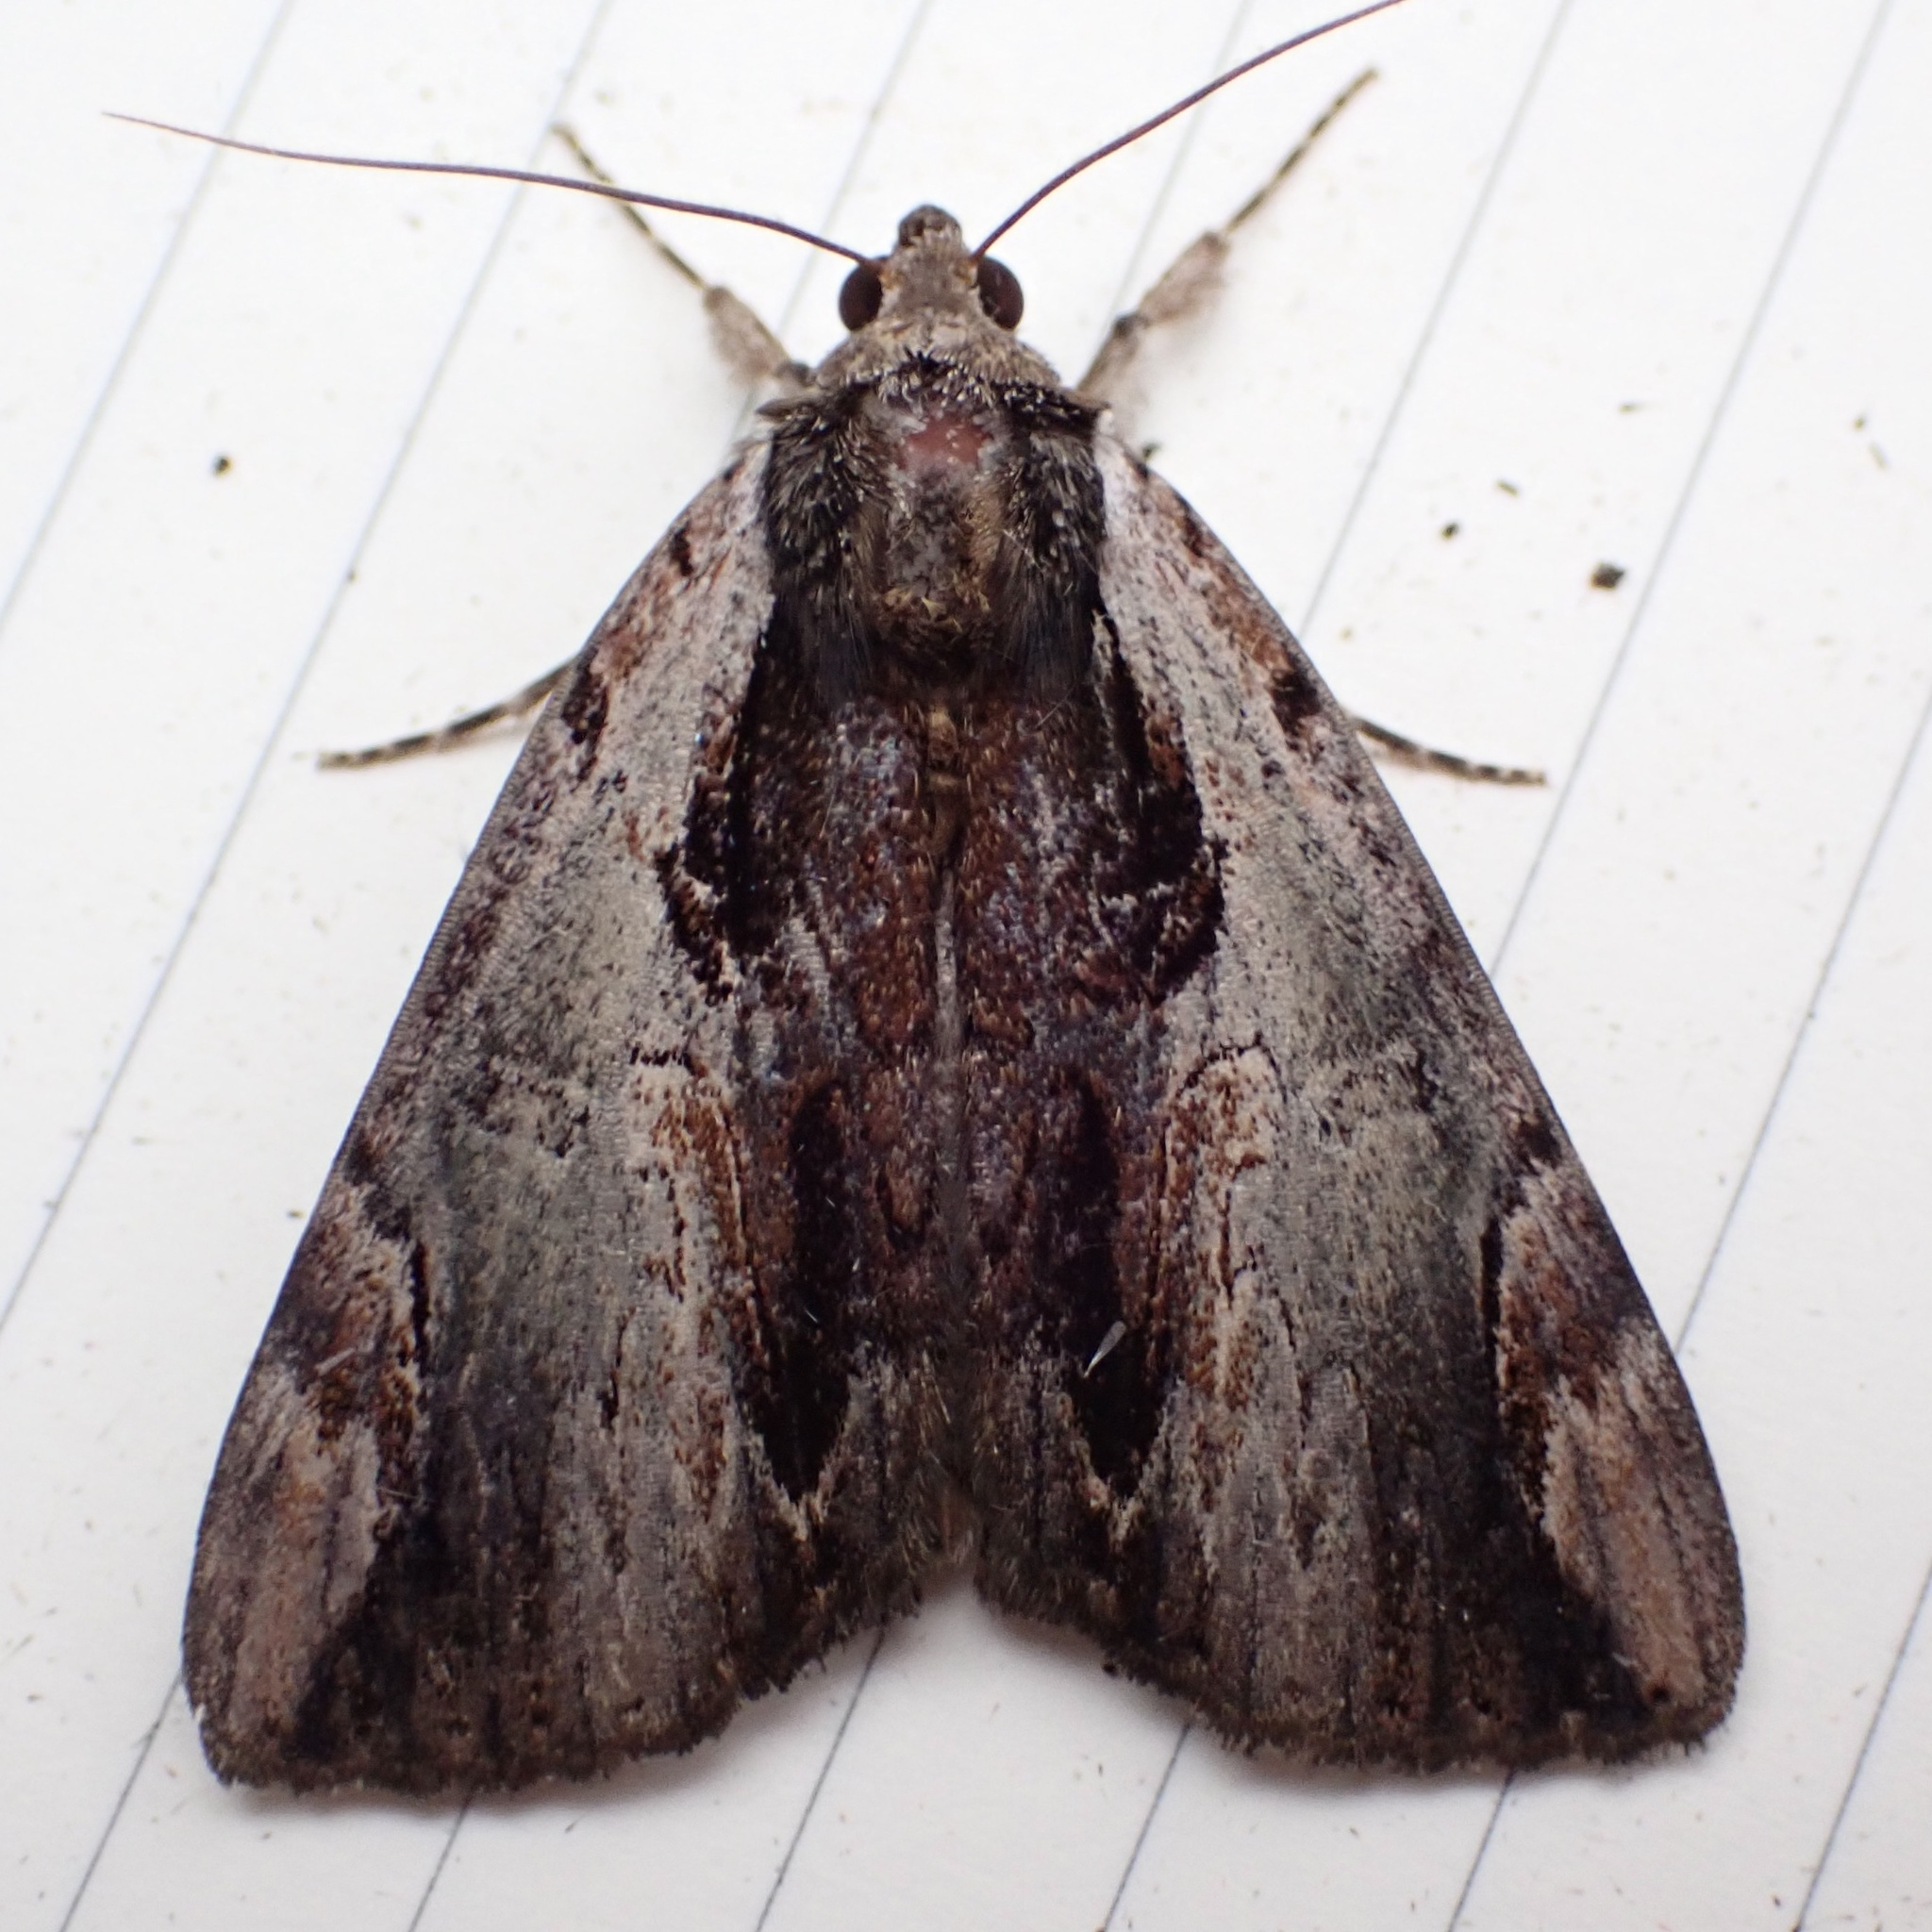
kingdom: Animalia
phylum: Arthropoda
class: Insecta
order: Lepidoptera
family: Erebidae
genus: Catocala
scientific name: Catocala ultronia
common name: Ultronia underwing
